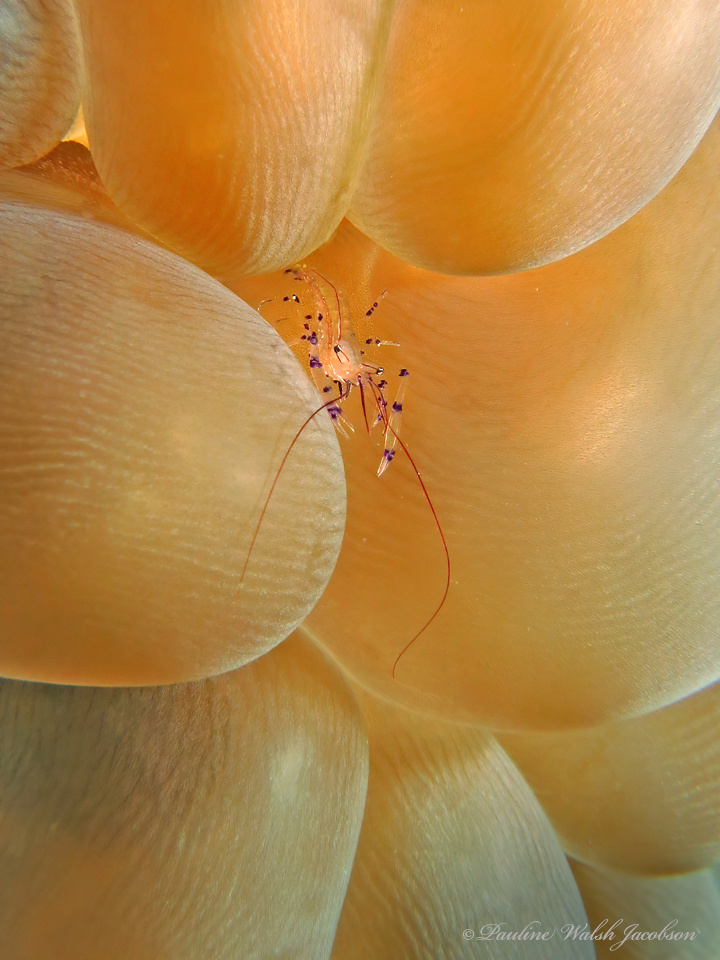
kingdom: Animalia
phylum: Arthropoda
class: Malacostraca
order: Decapoda
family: Palaemonidae
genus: Vir
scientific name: Vir colemani
